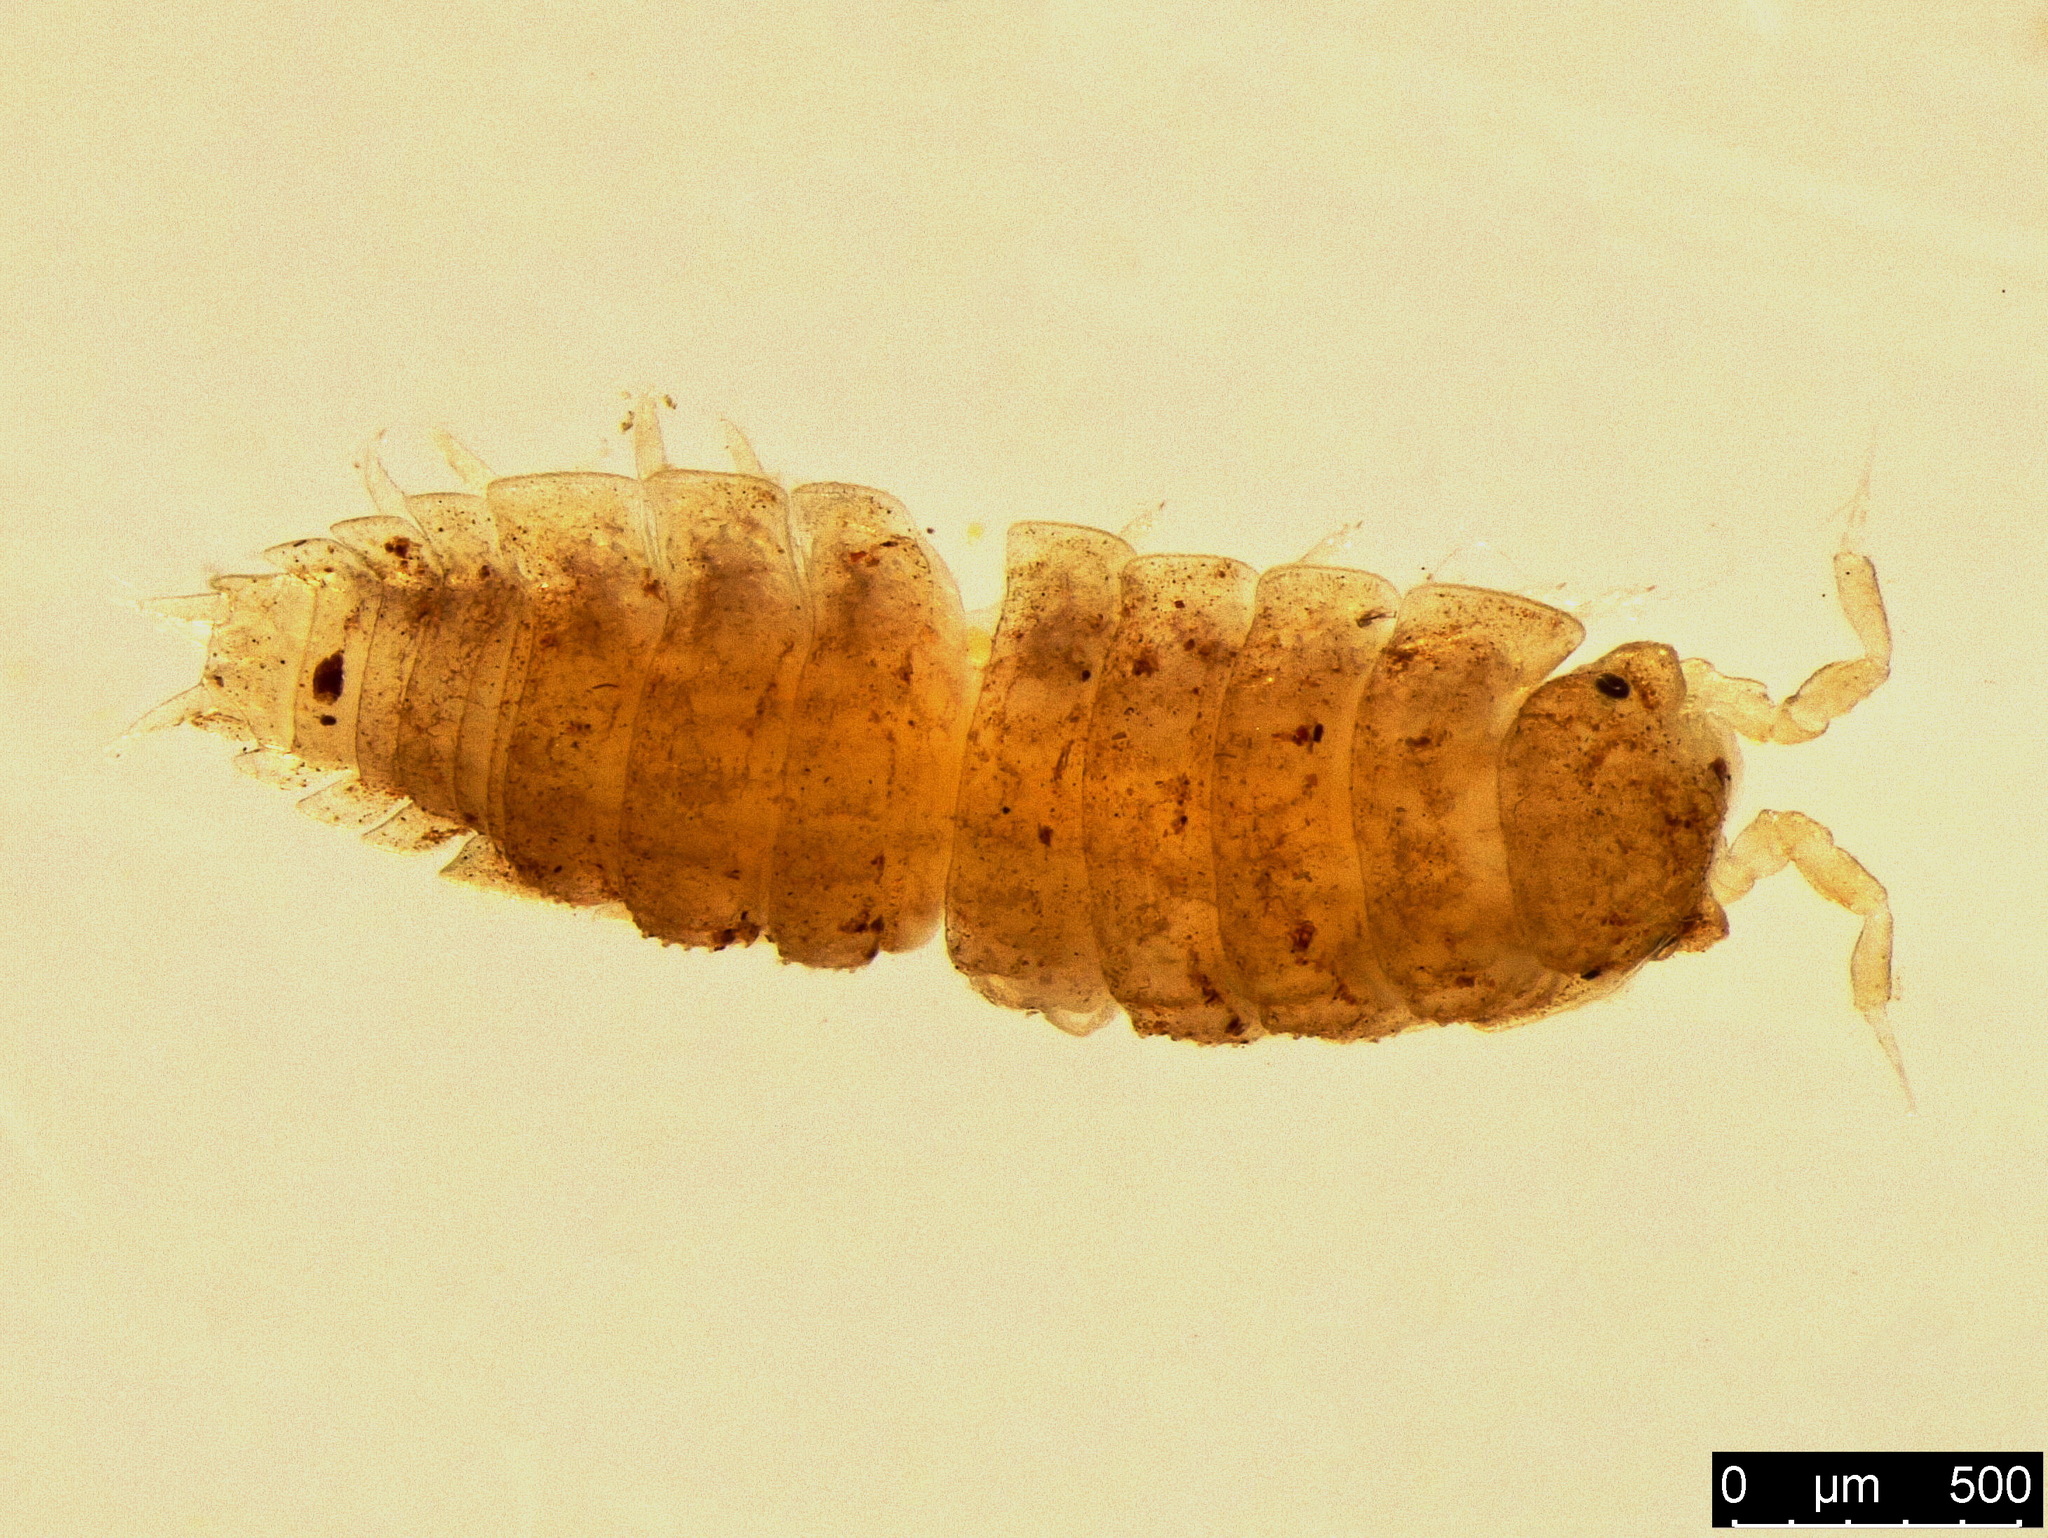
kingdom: Animalia
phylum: Arthropoda
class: Malacostraca
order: Isopoda
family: Trichoniscidae
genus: Haplophthalmus
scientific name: Haplophthalmus danicus
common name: Pillbug
